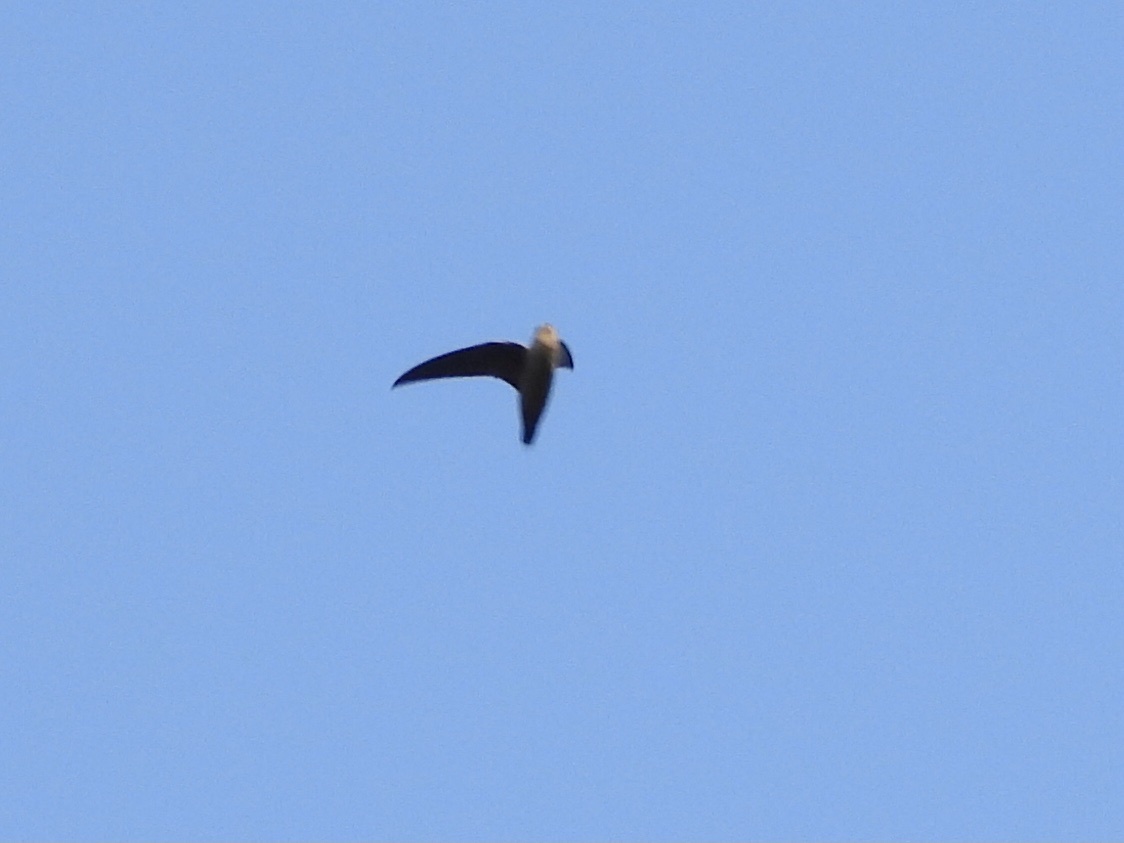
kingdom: Animalia
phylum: Chordata
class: Aves
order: Apodiformes
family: Apodidae
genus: Chaetura
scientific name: Chaetura vauxi
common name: Vaux's swift
